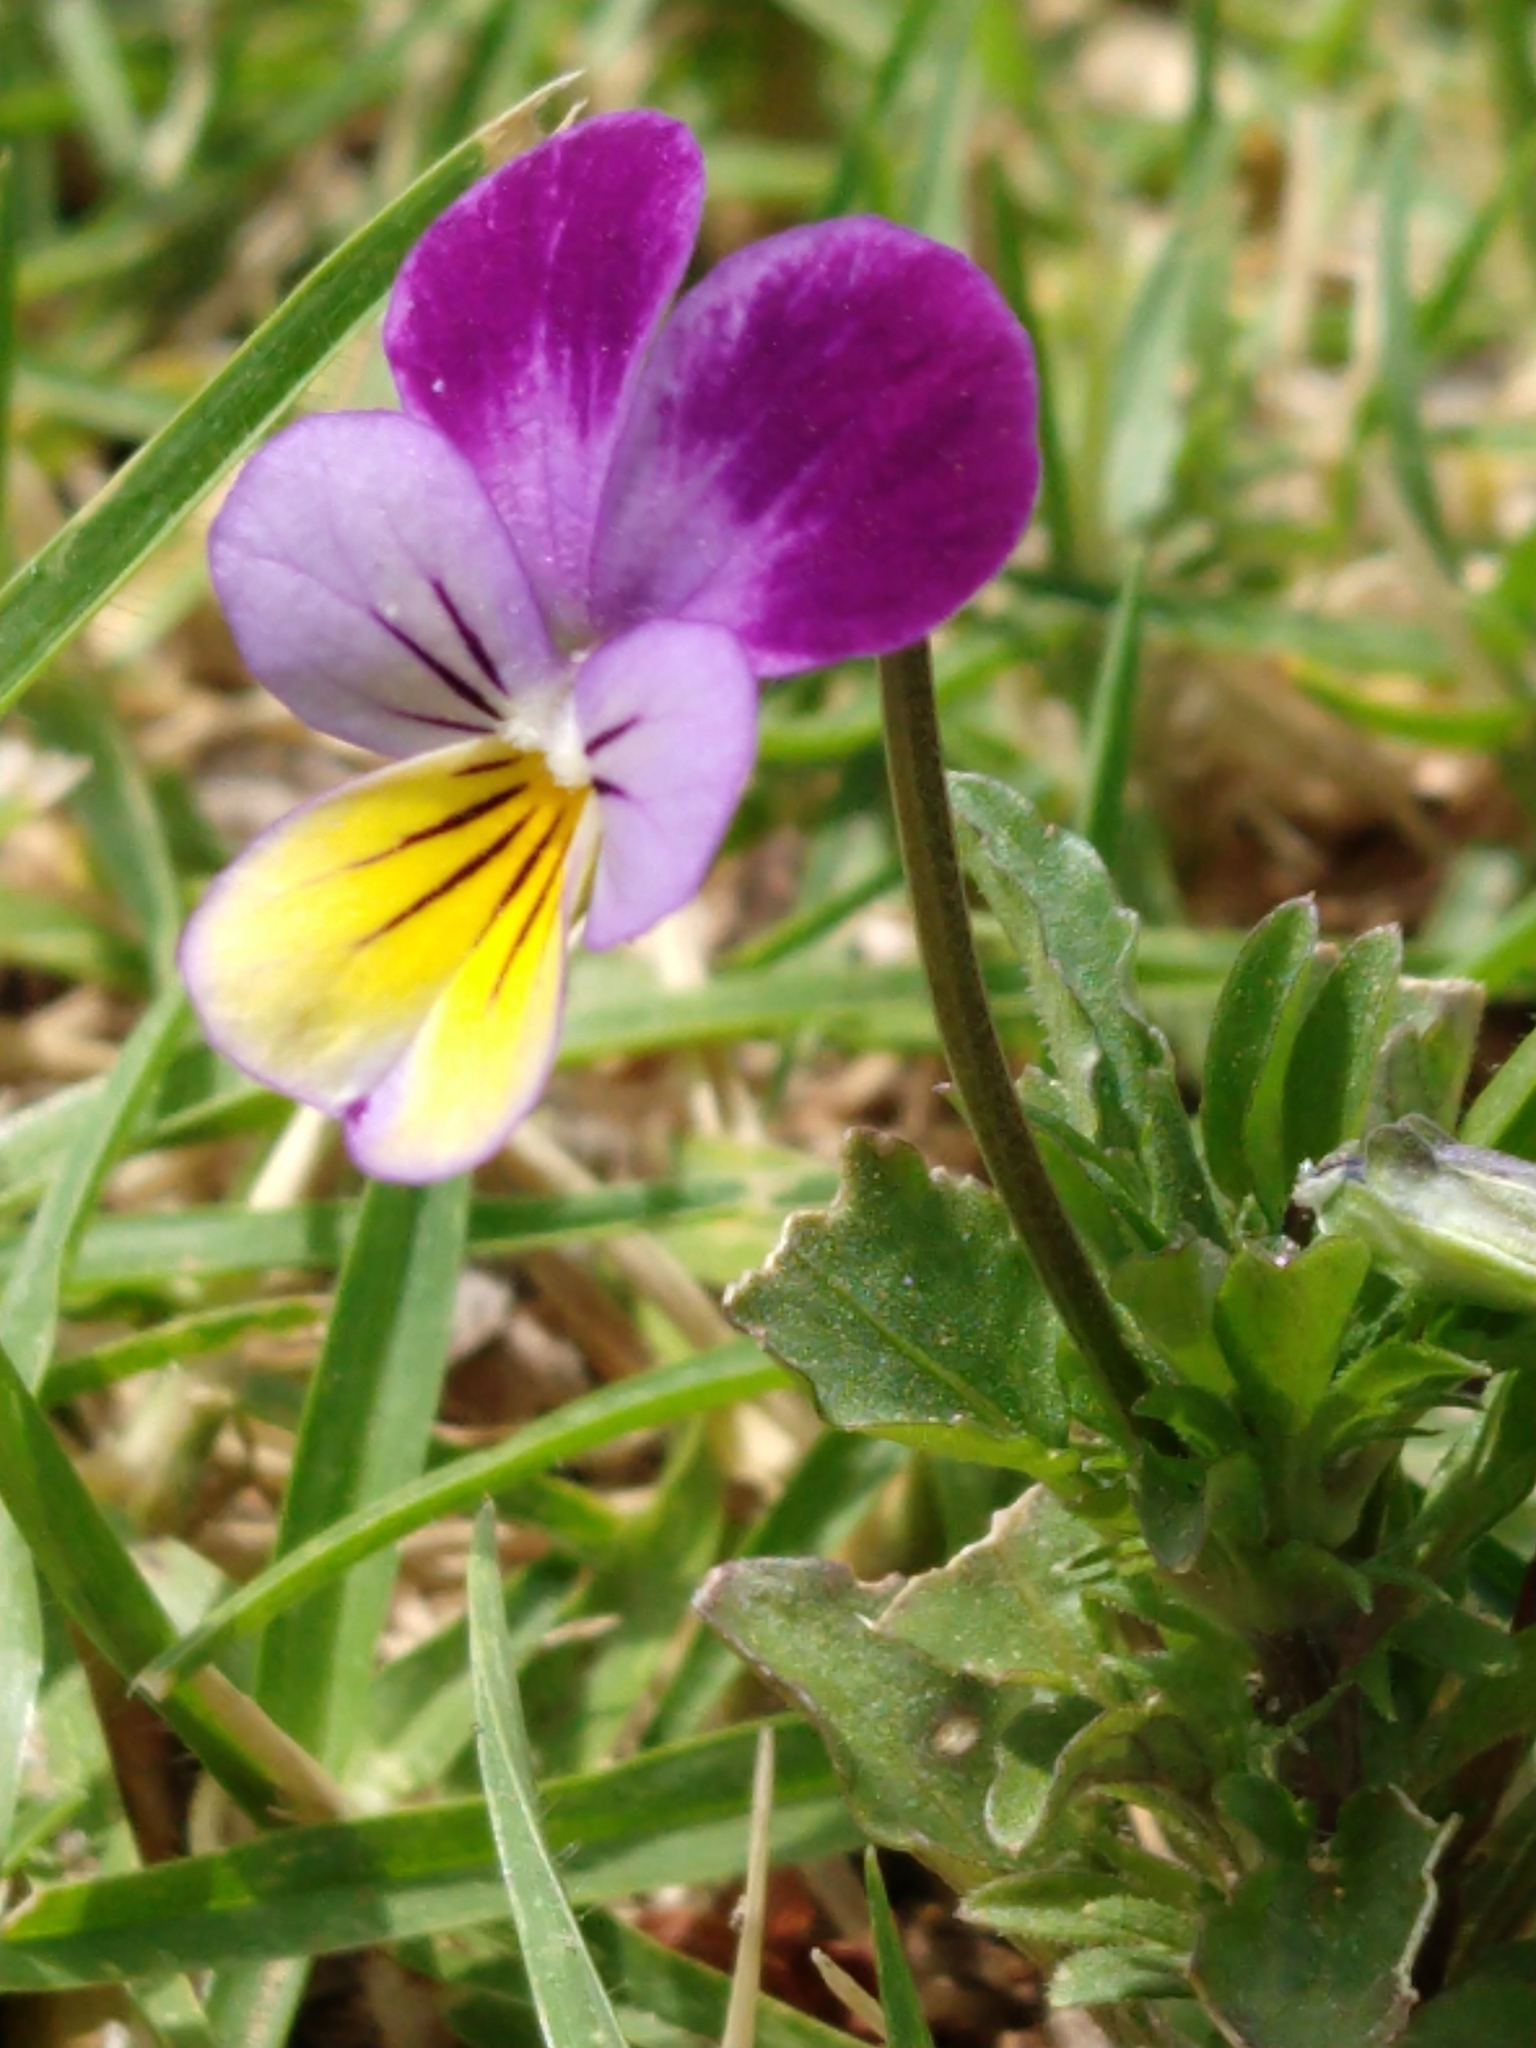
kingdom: Plantae
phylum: Tracheophyta
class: Magnoliopsida
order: Malpighiales
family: Violaceae
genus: Viola
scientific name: Viola williamsii
